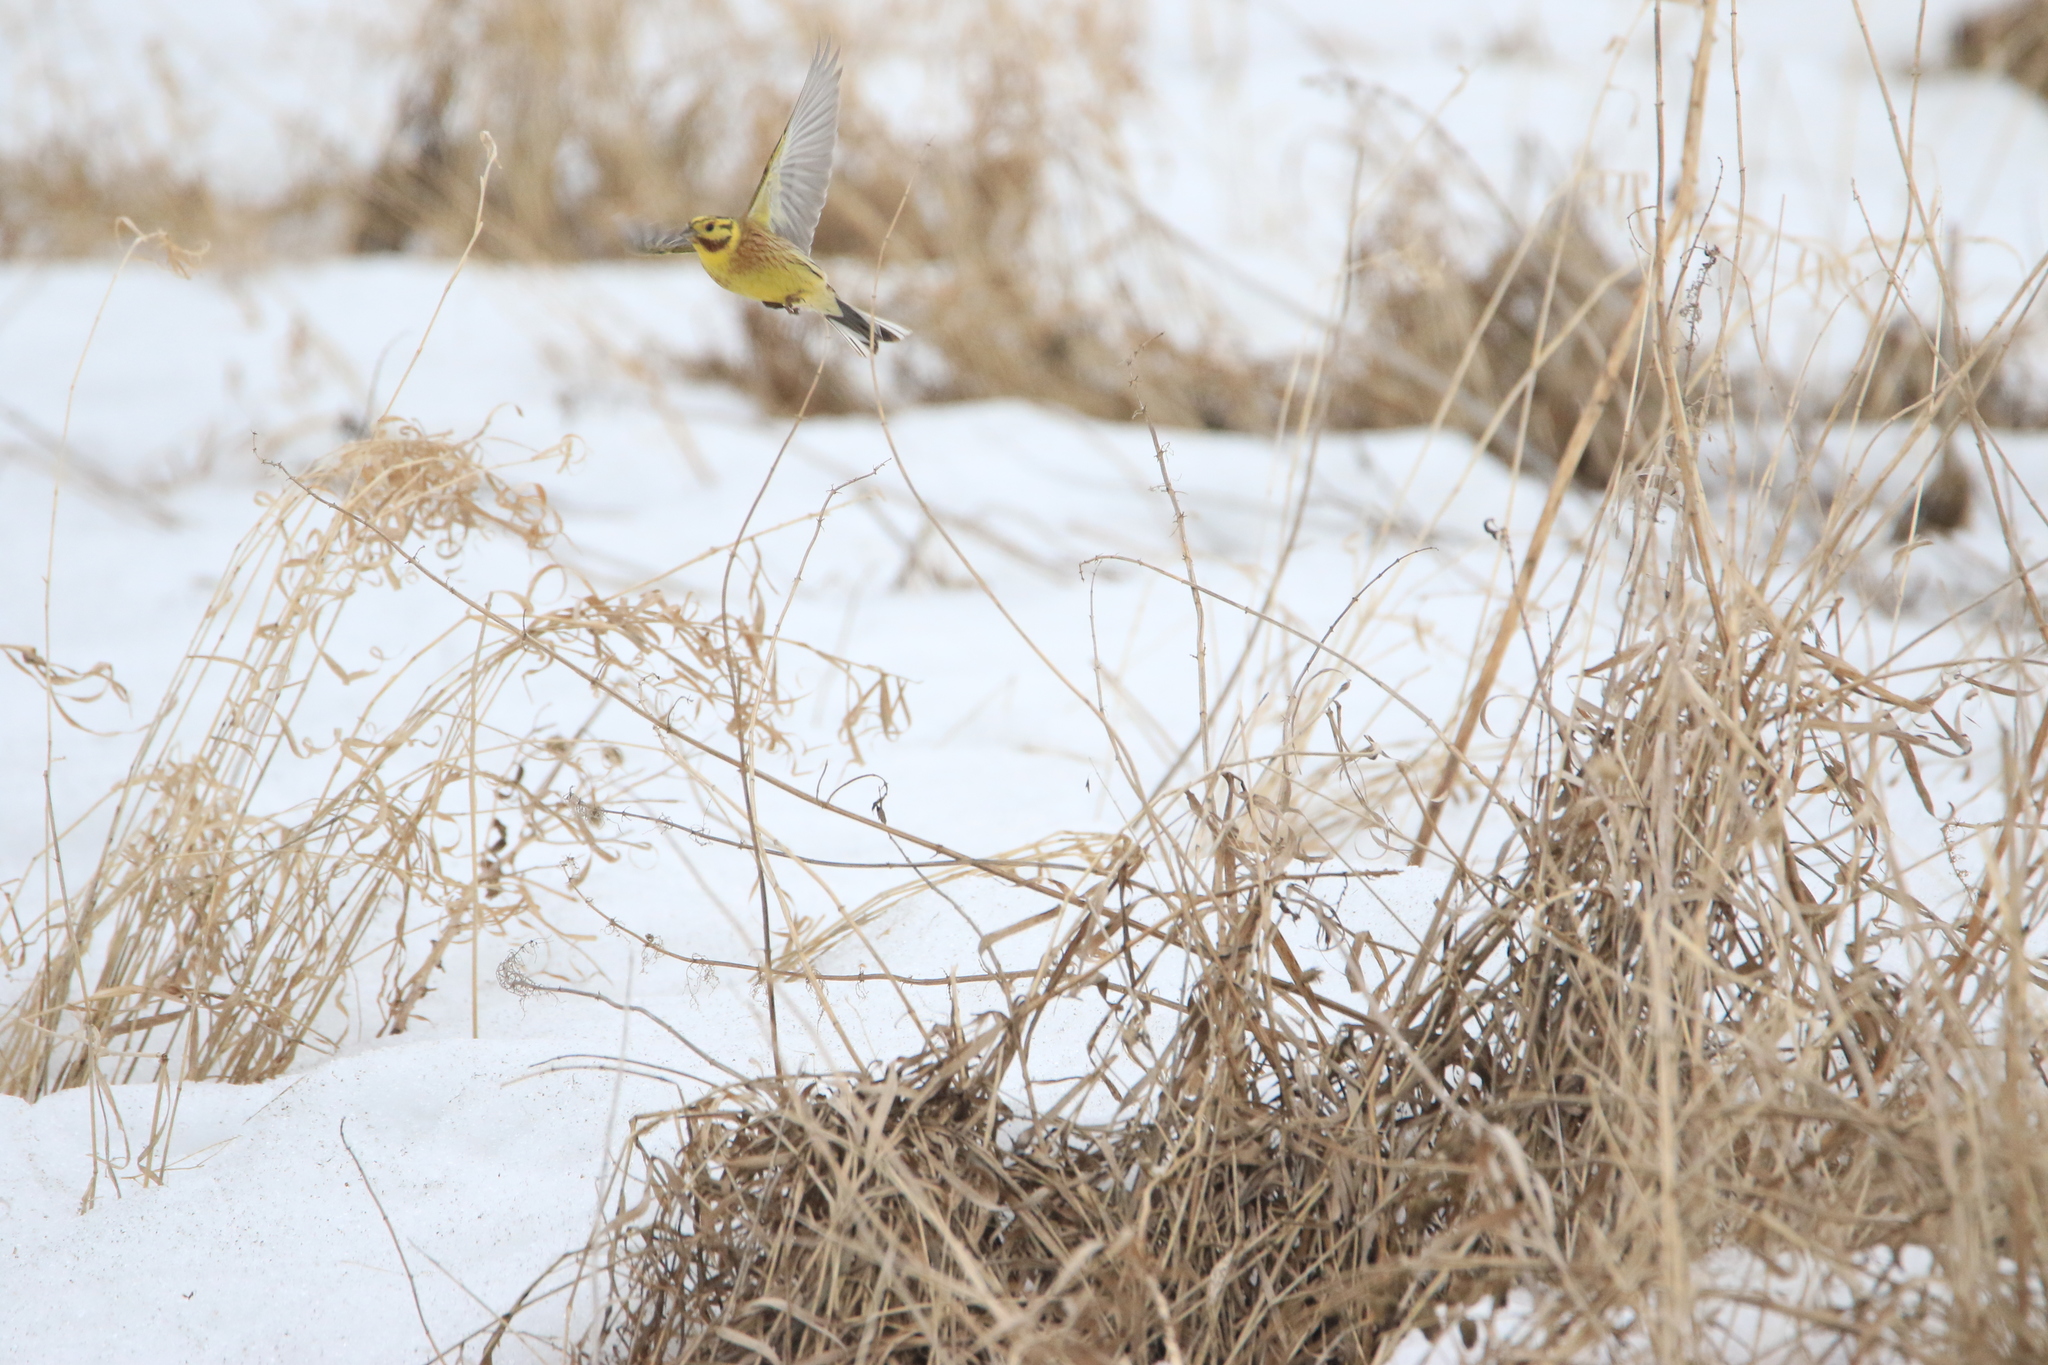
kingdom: Animalia
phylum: Chordata
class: Aves
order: Passeriformes
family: Emberizidae
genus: Emberiza
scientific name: Emberiza citrinella
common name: Yellowhammer
